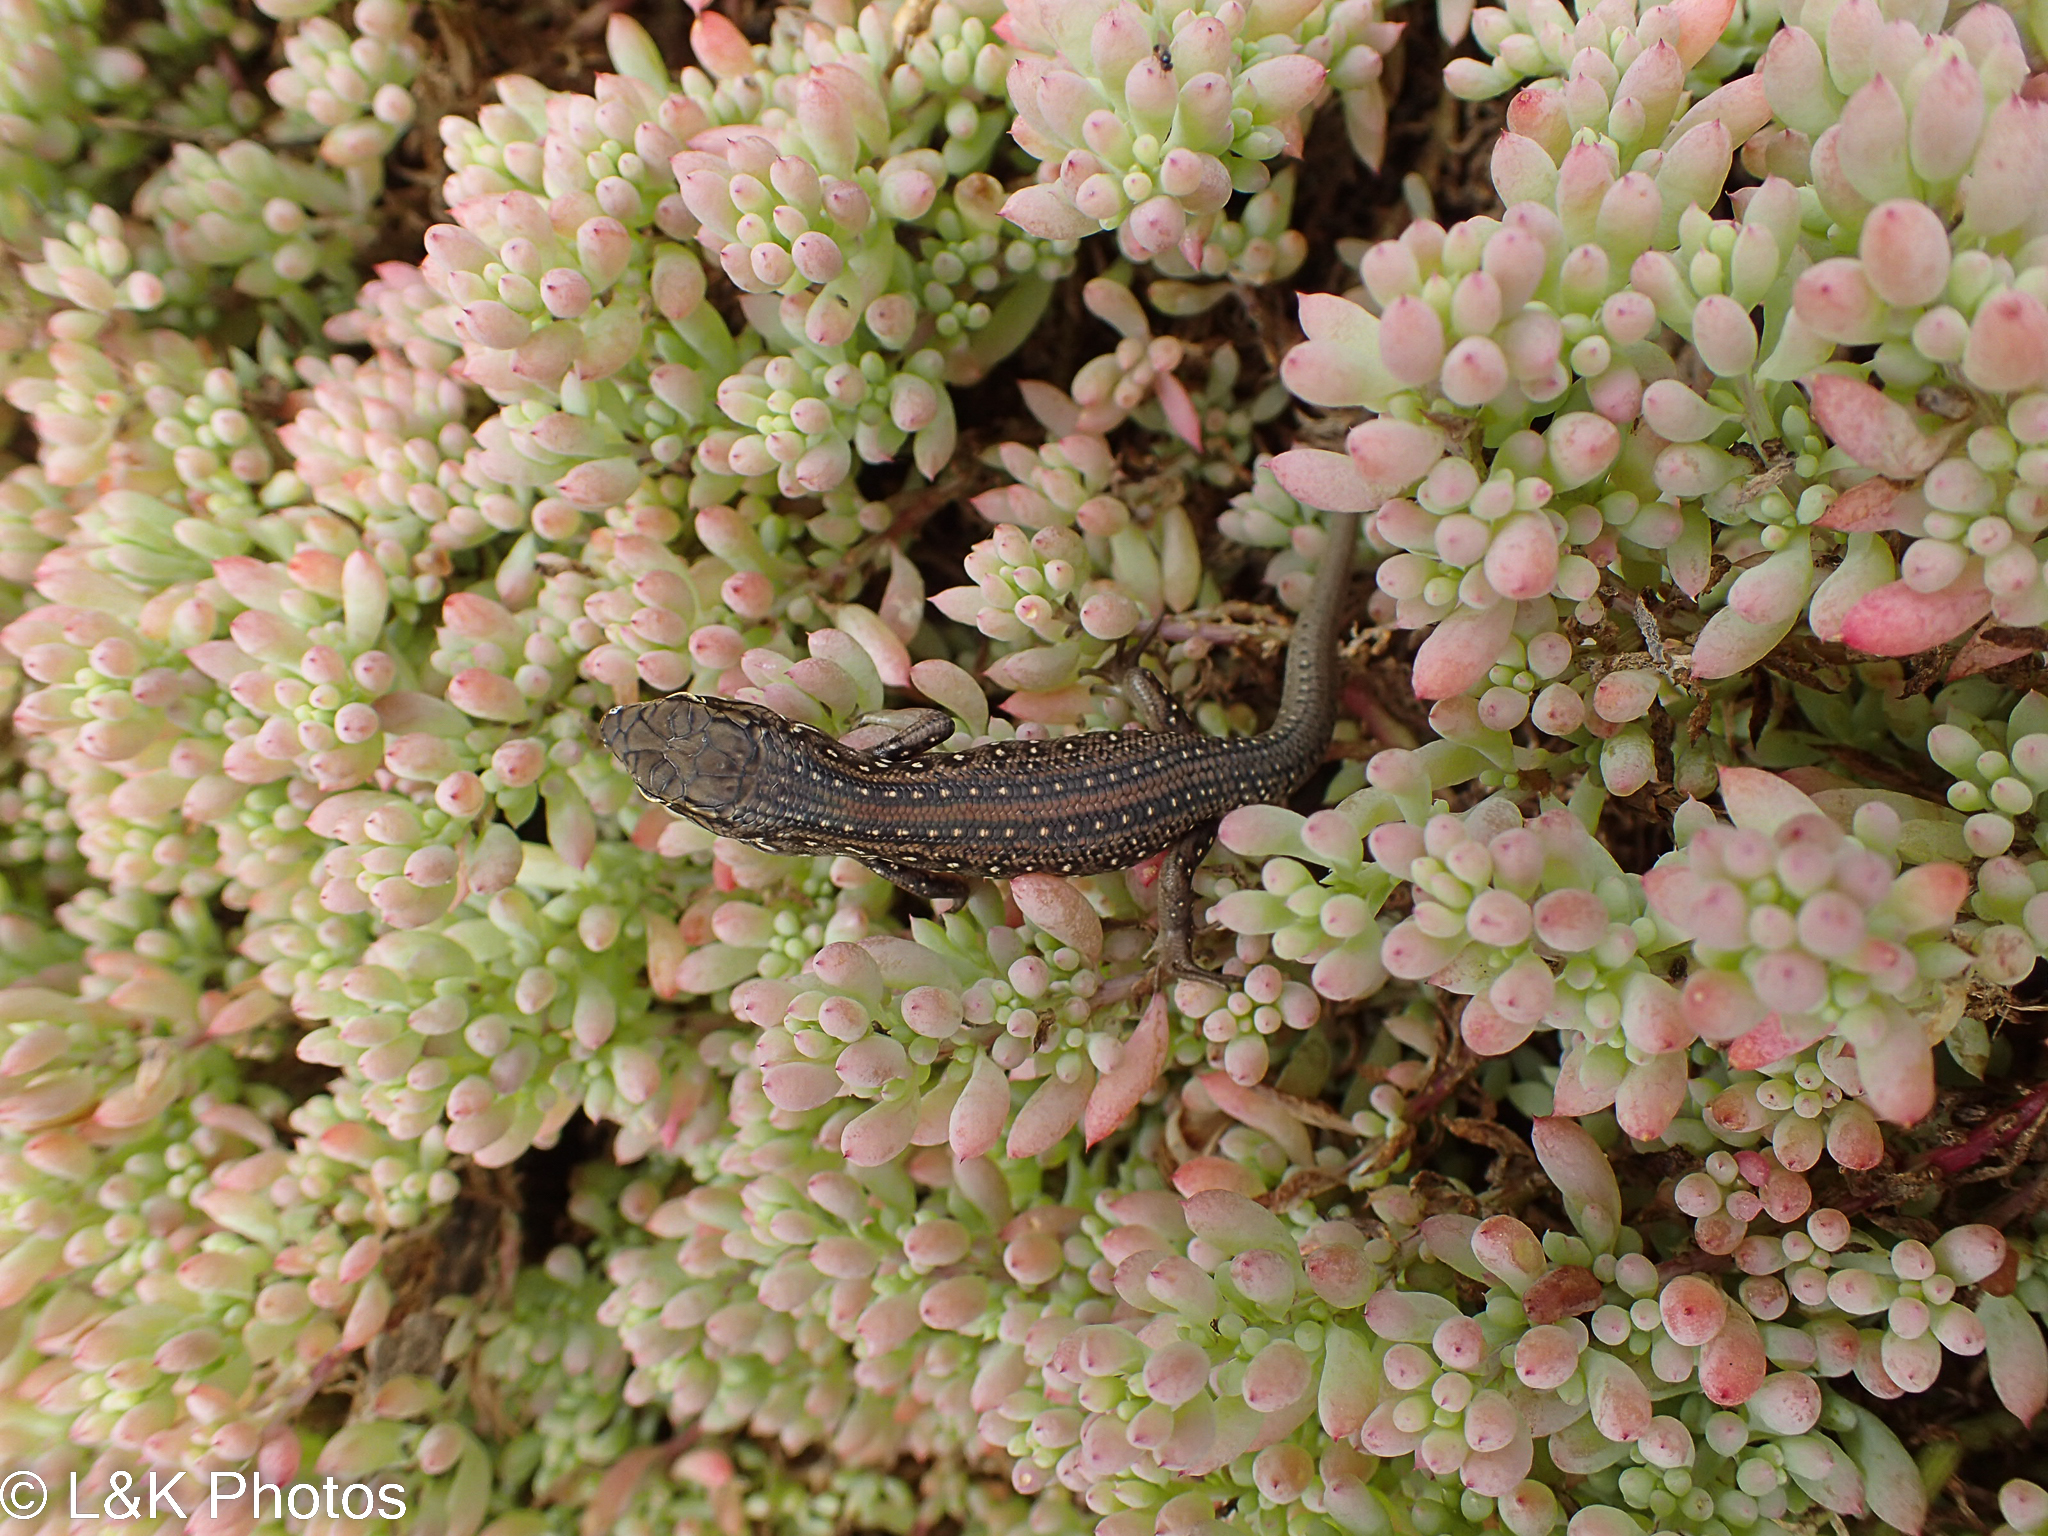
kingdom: Animalia
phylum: Chordata
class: Squamata
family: Scincidae
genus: Liopholis
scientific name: Liopholis whitii
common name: White's rock-skink
